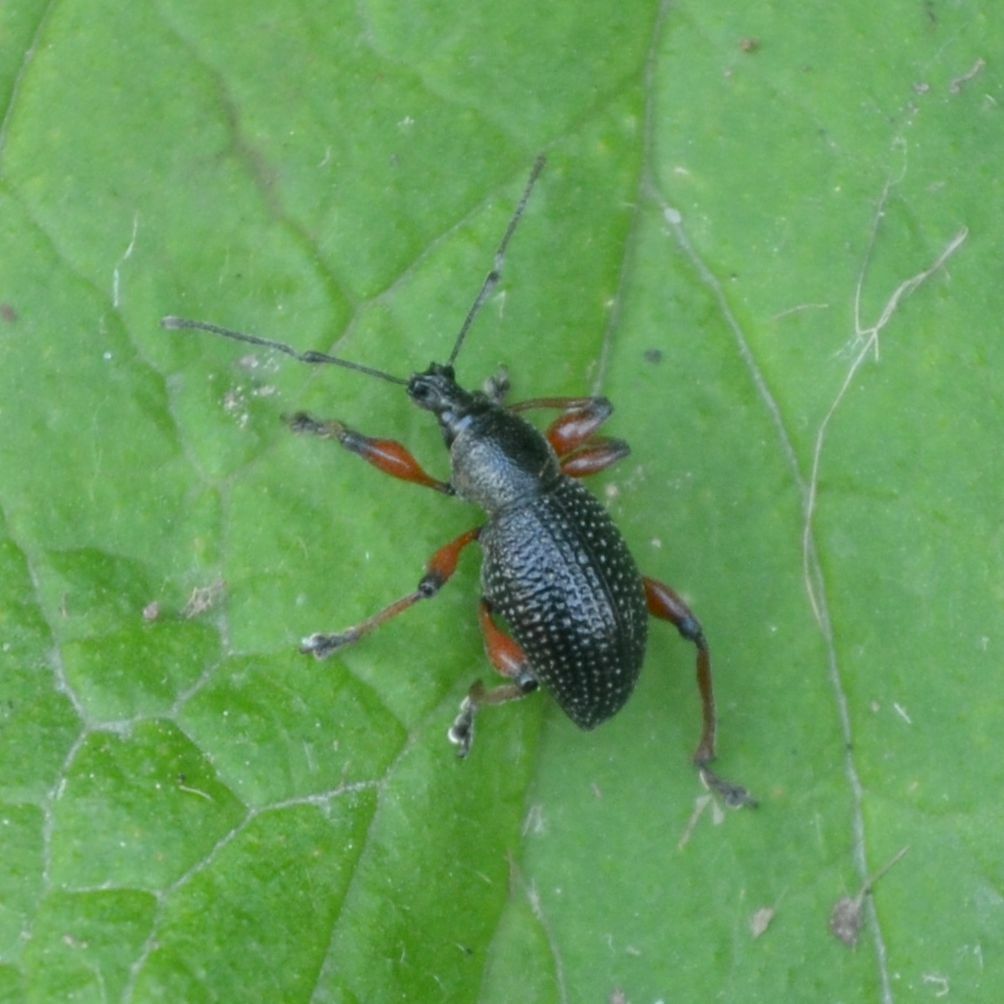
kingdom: Animalia
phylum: Arthropoda
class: Insecta
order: Coleoptera
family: Curculionidae
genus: Otiorhynchus
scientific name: Otiorhynchus coecus
